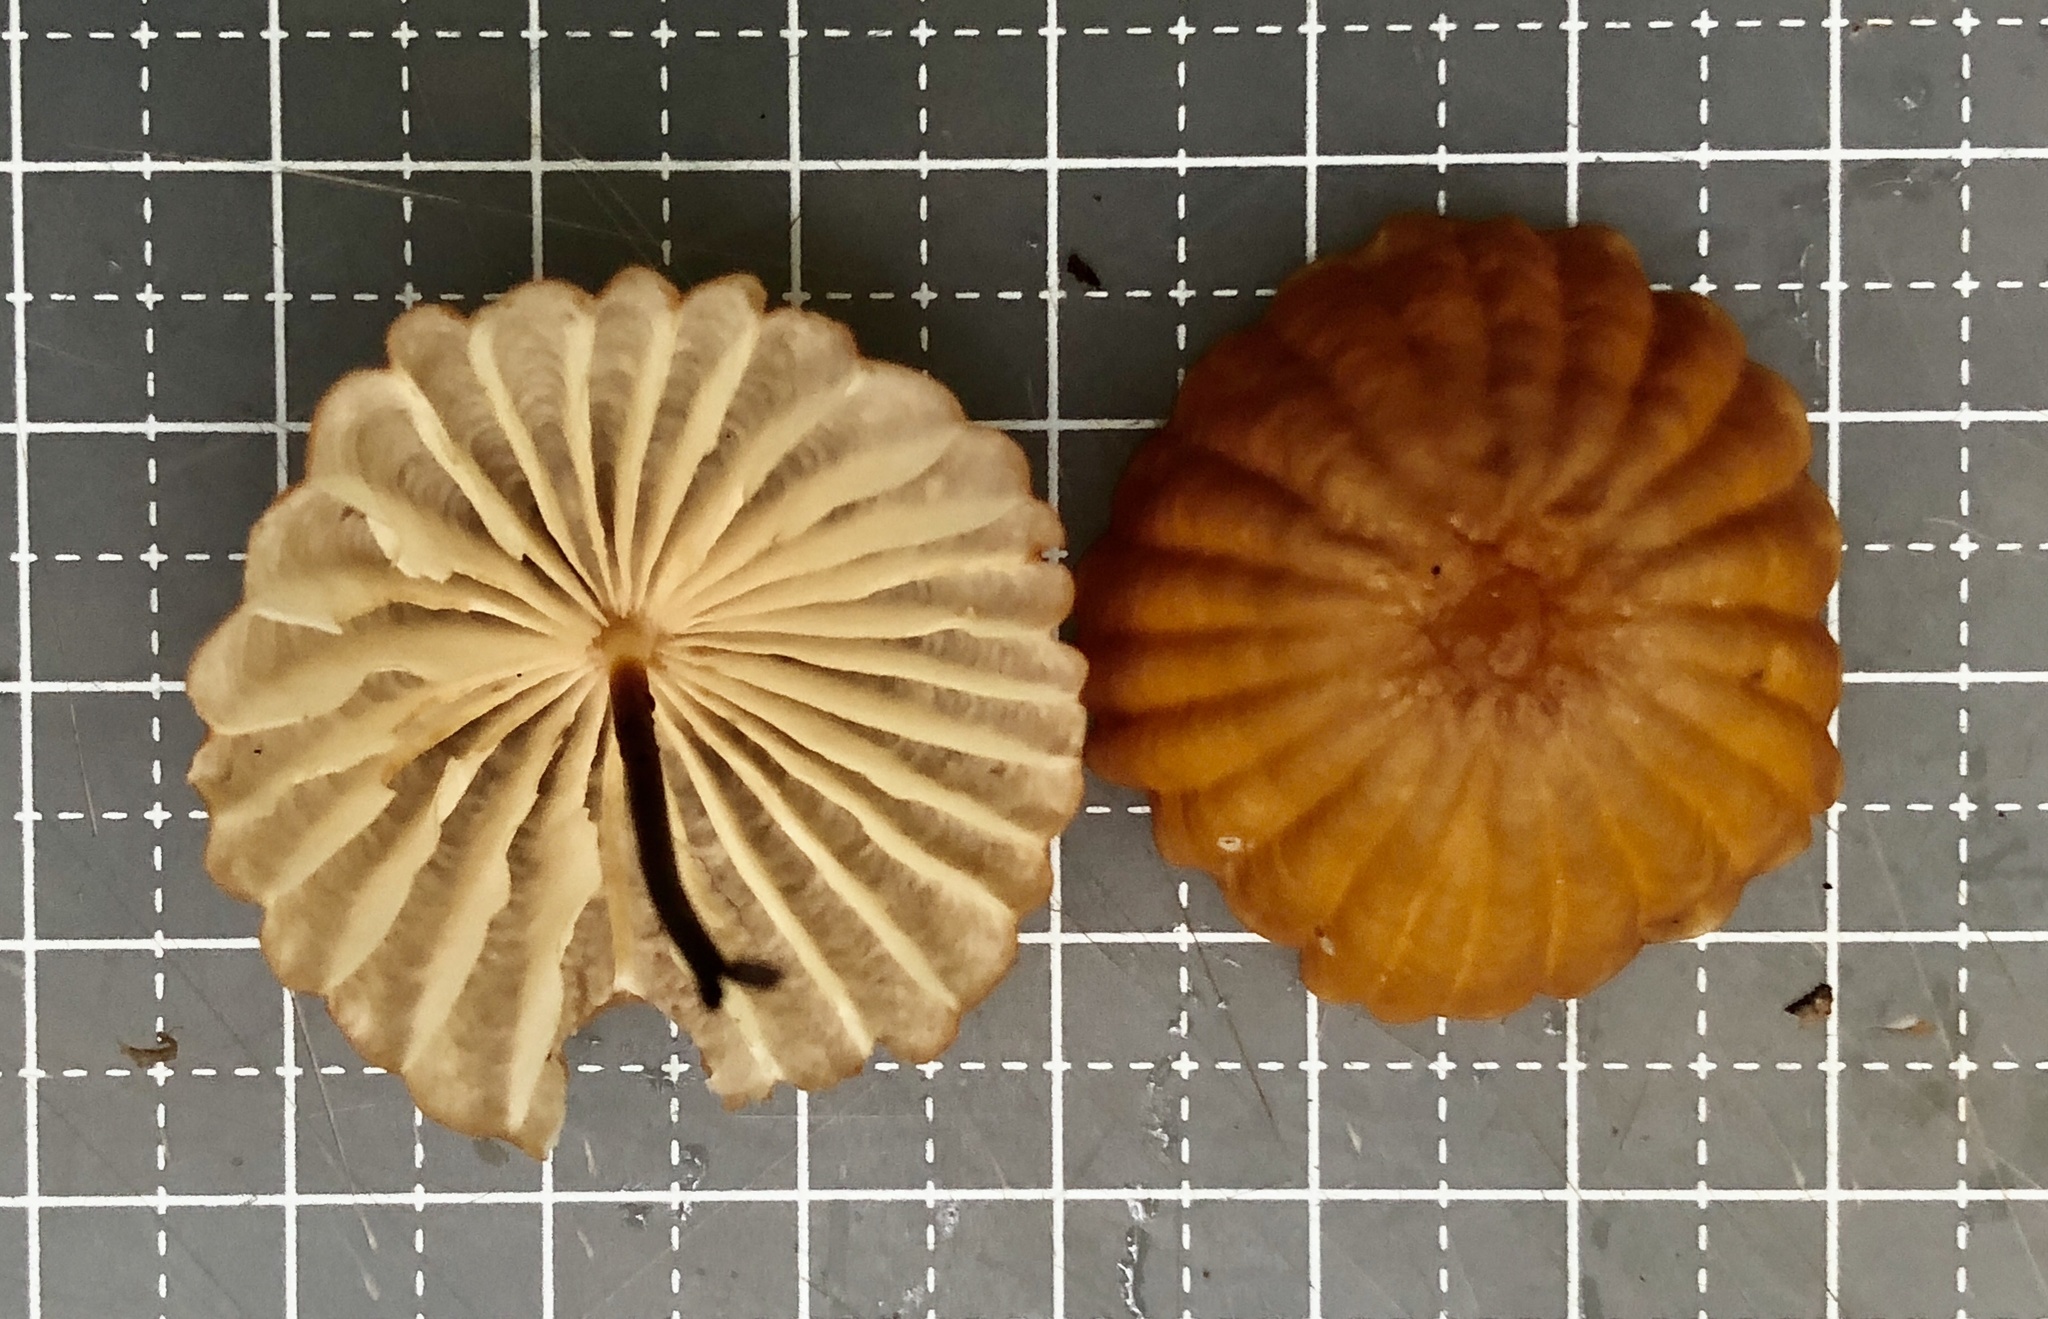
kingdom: Fungi
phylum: Basidiomycota
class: Agaricomycetes
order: Agaricales
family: Marasmiaceae
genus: Marasmius
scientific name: Marasmius siccus
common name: Orange pinwheel
